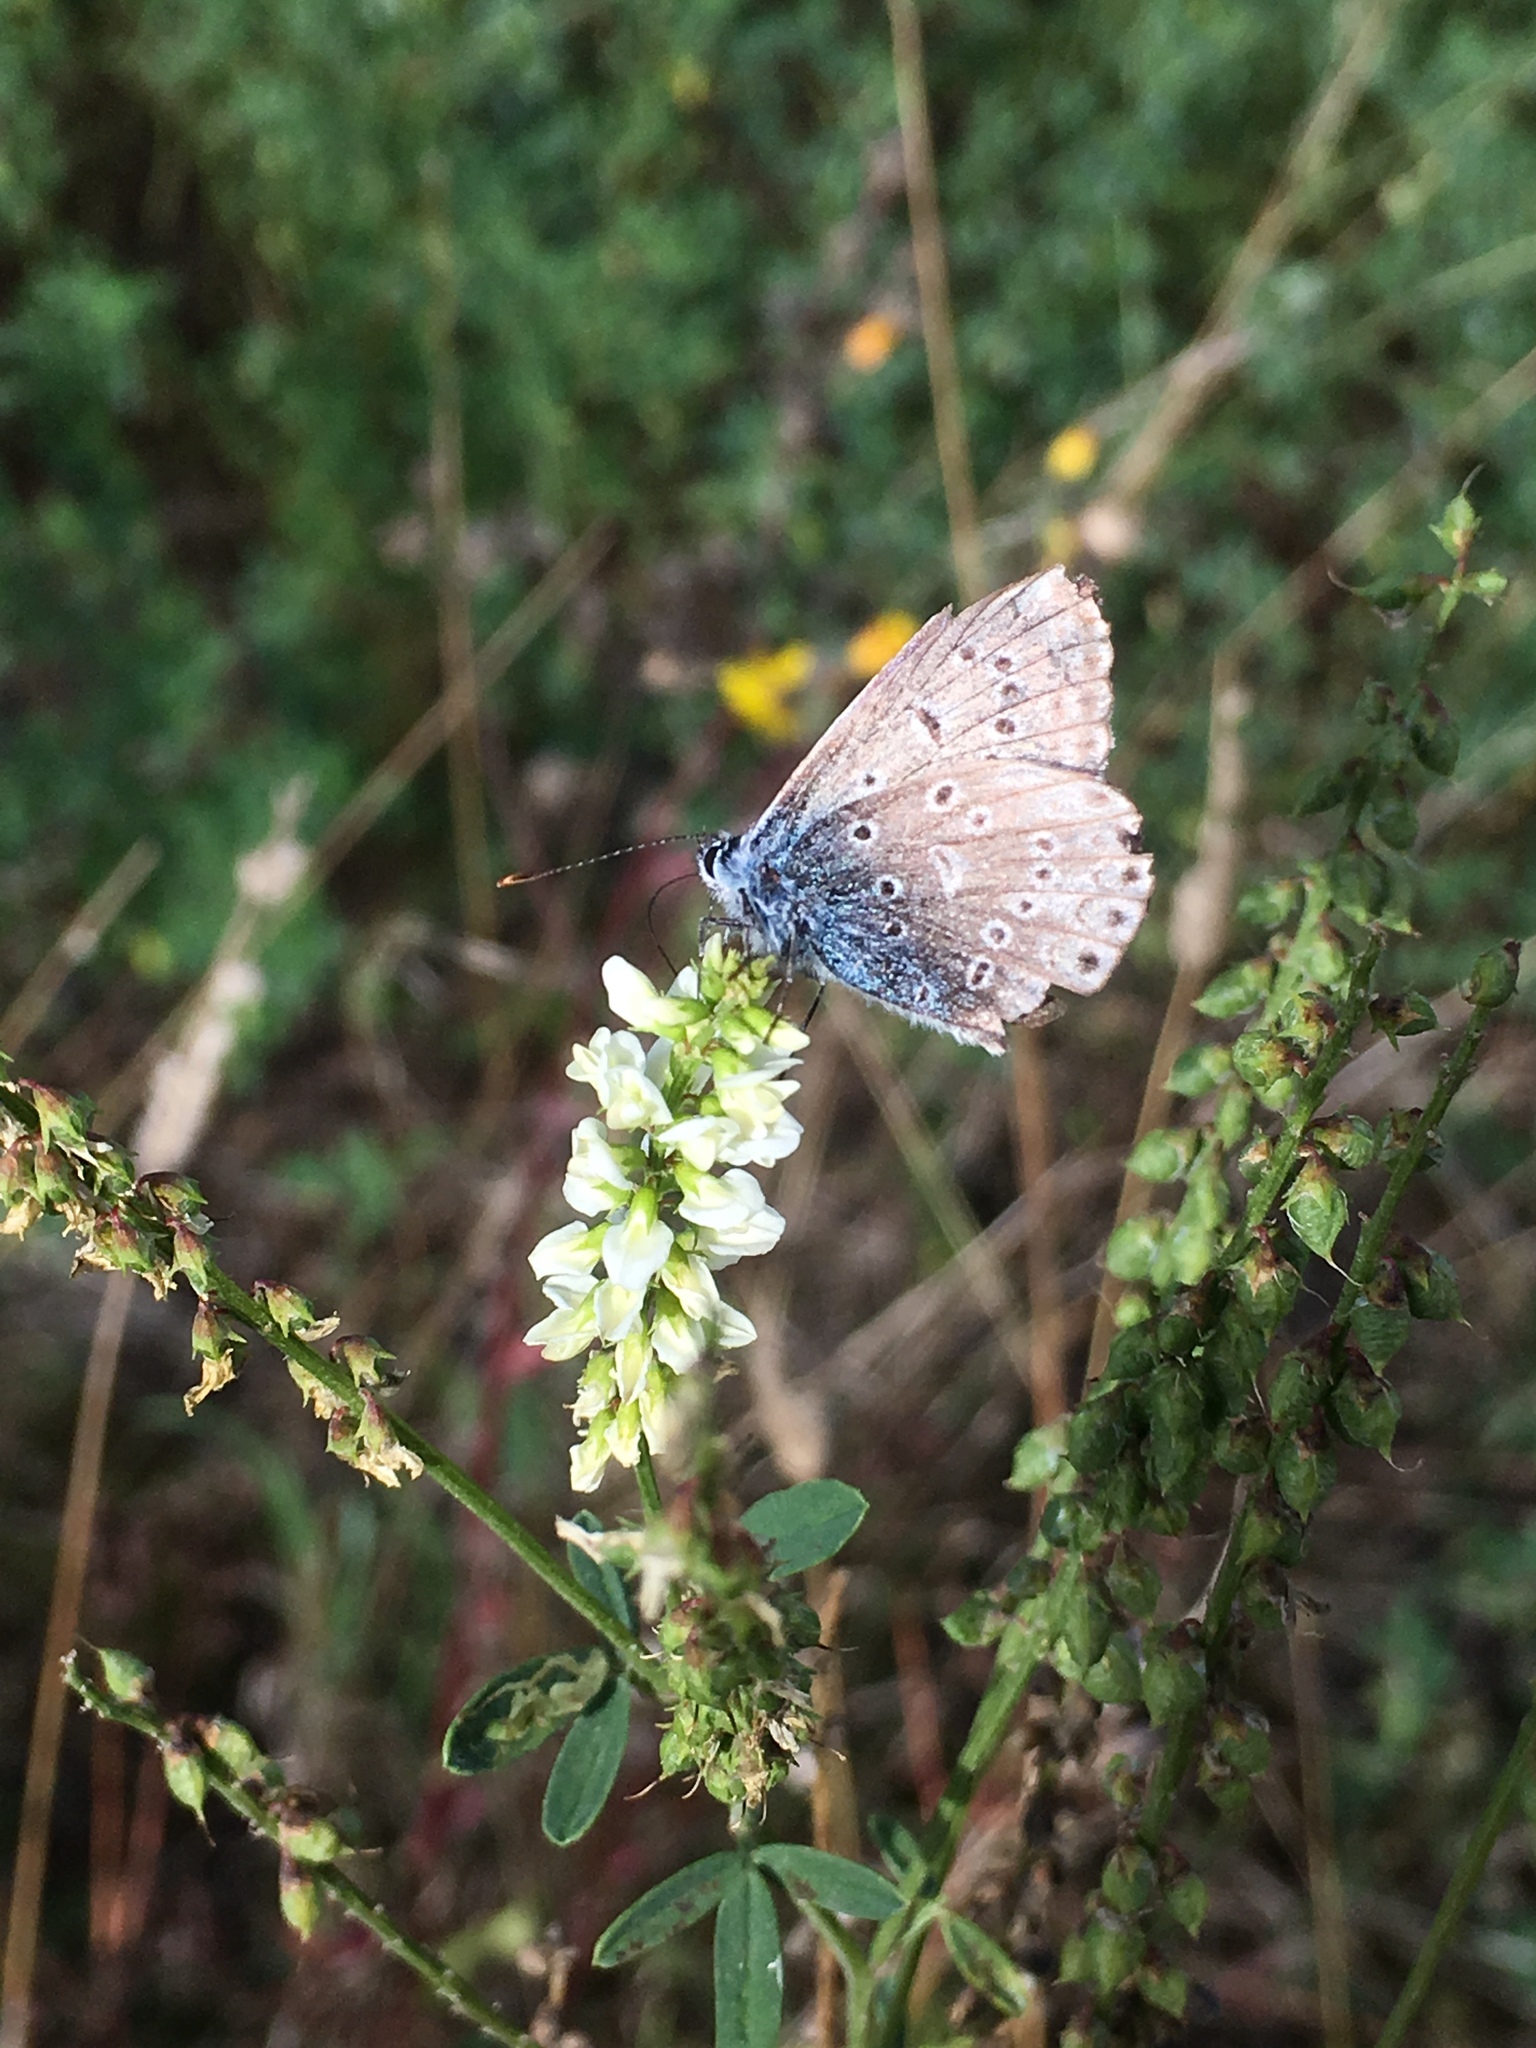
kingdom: Animalia
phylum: Arthropoda
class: Insecta
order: Lepidoptera
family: Lycaenidae
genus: Polyommatus
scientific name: Polyommatus icarus
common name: Common blue
